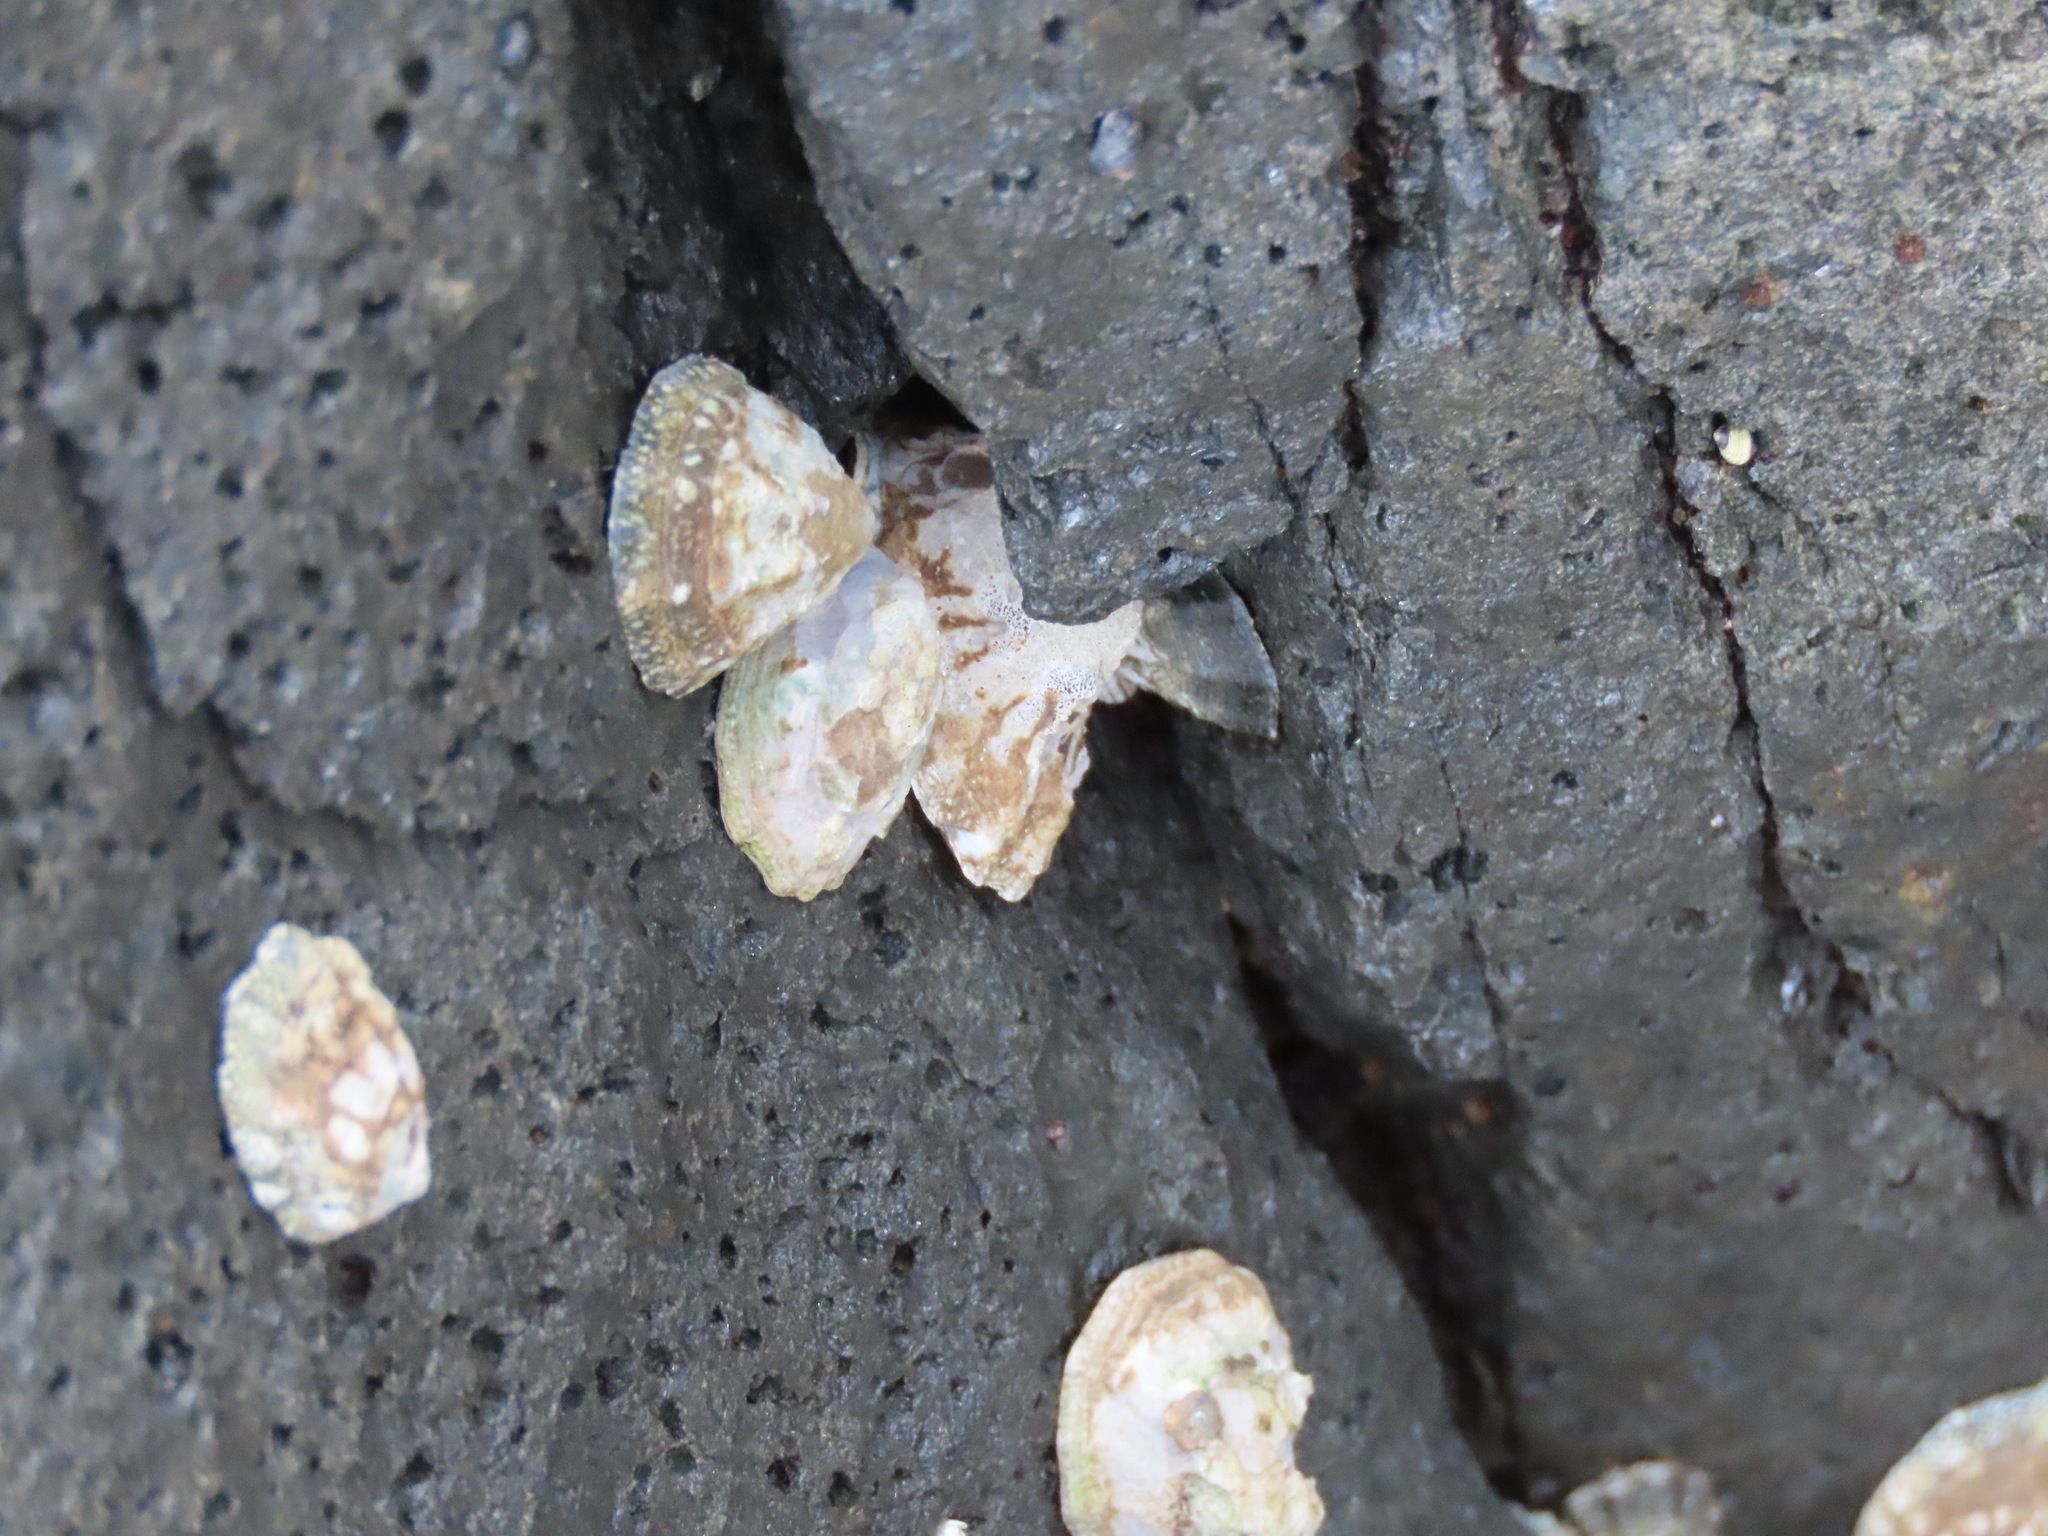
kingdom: Animalia
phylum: Mollusca
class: Gastropoda
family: Lottiidae
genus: Lottia
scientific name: Lottia digitalis
